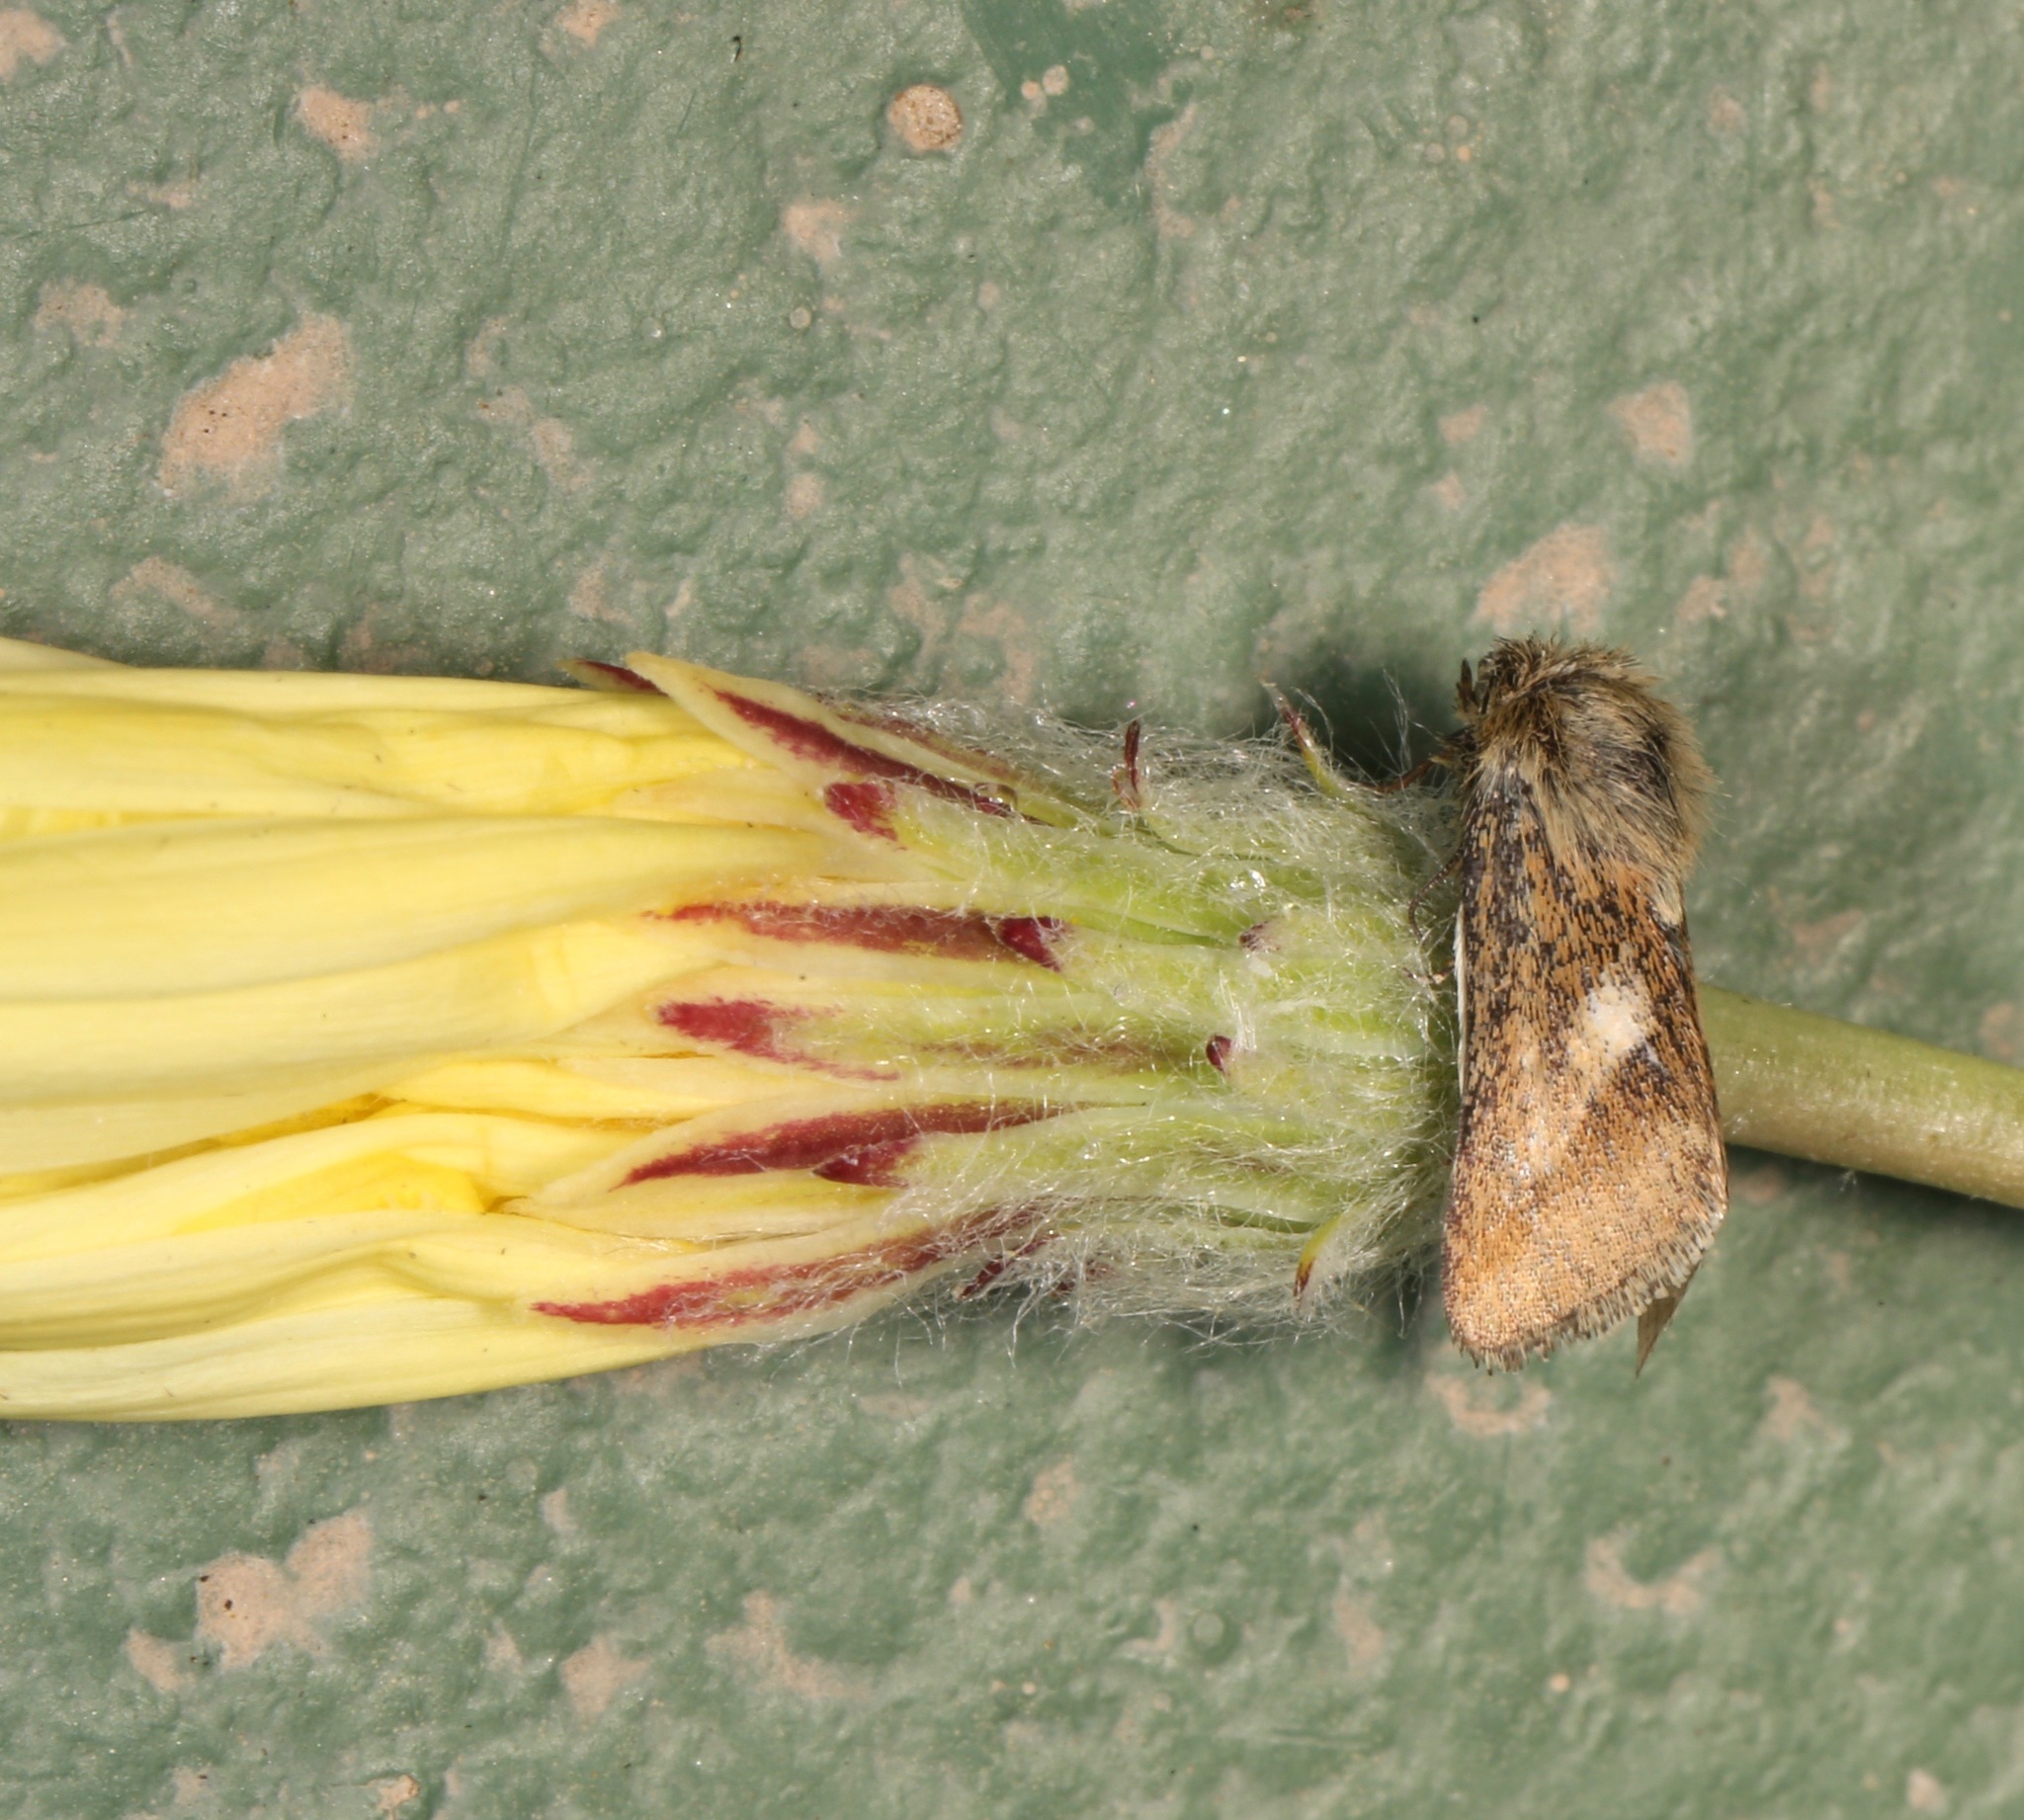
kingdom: Animalia
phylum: Arthropoda
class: Insecta
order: Lepidoptera
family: Noctuidae
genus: Heliolonche
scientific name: Heliolonche joaquinensis
